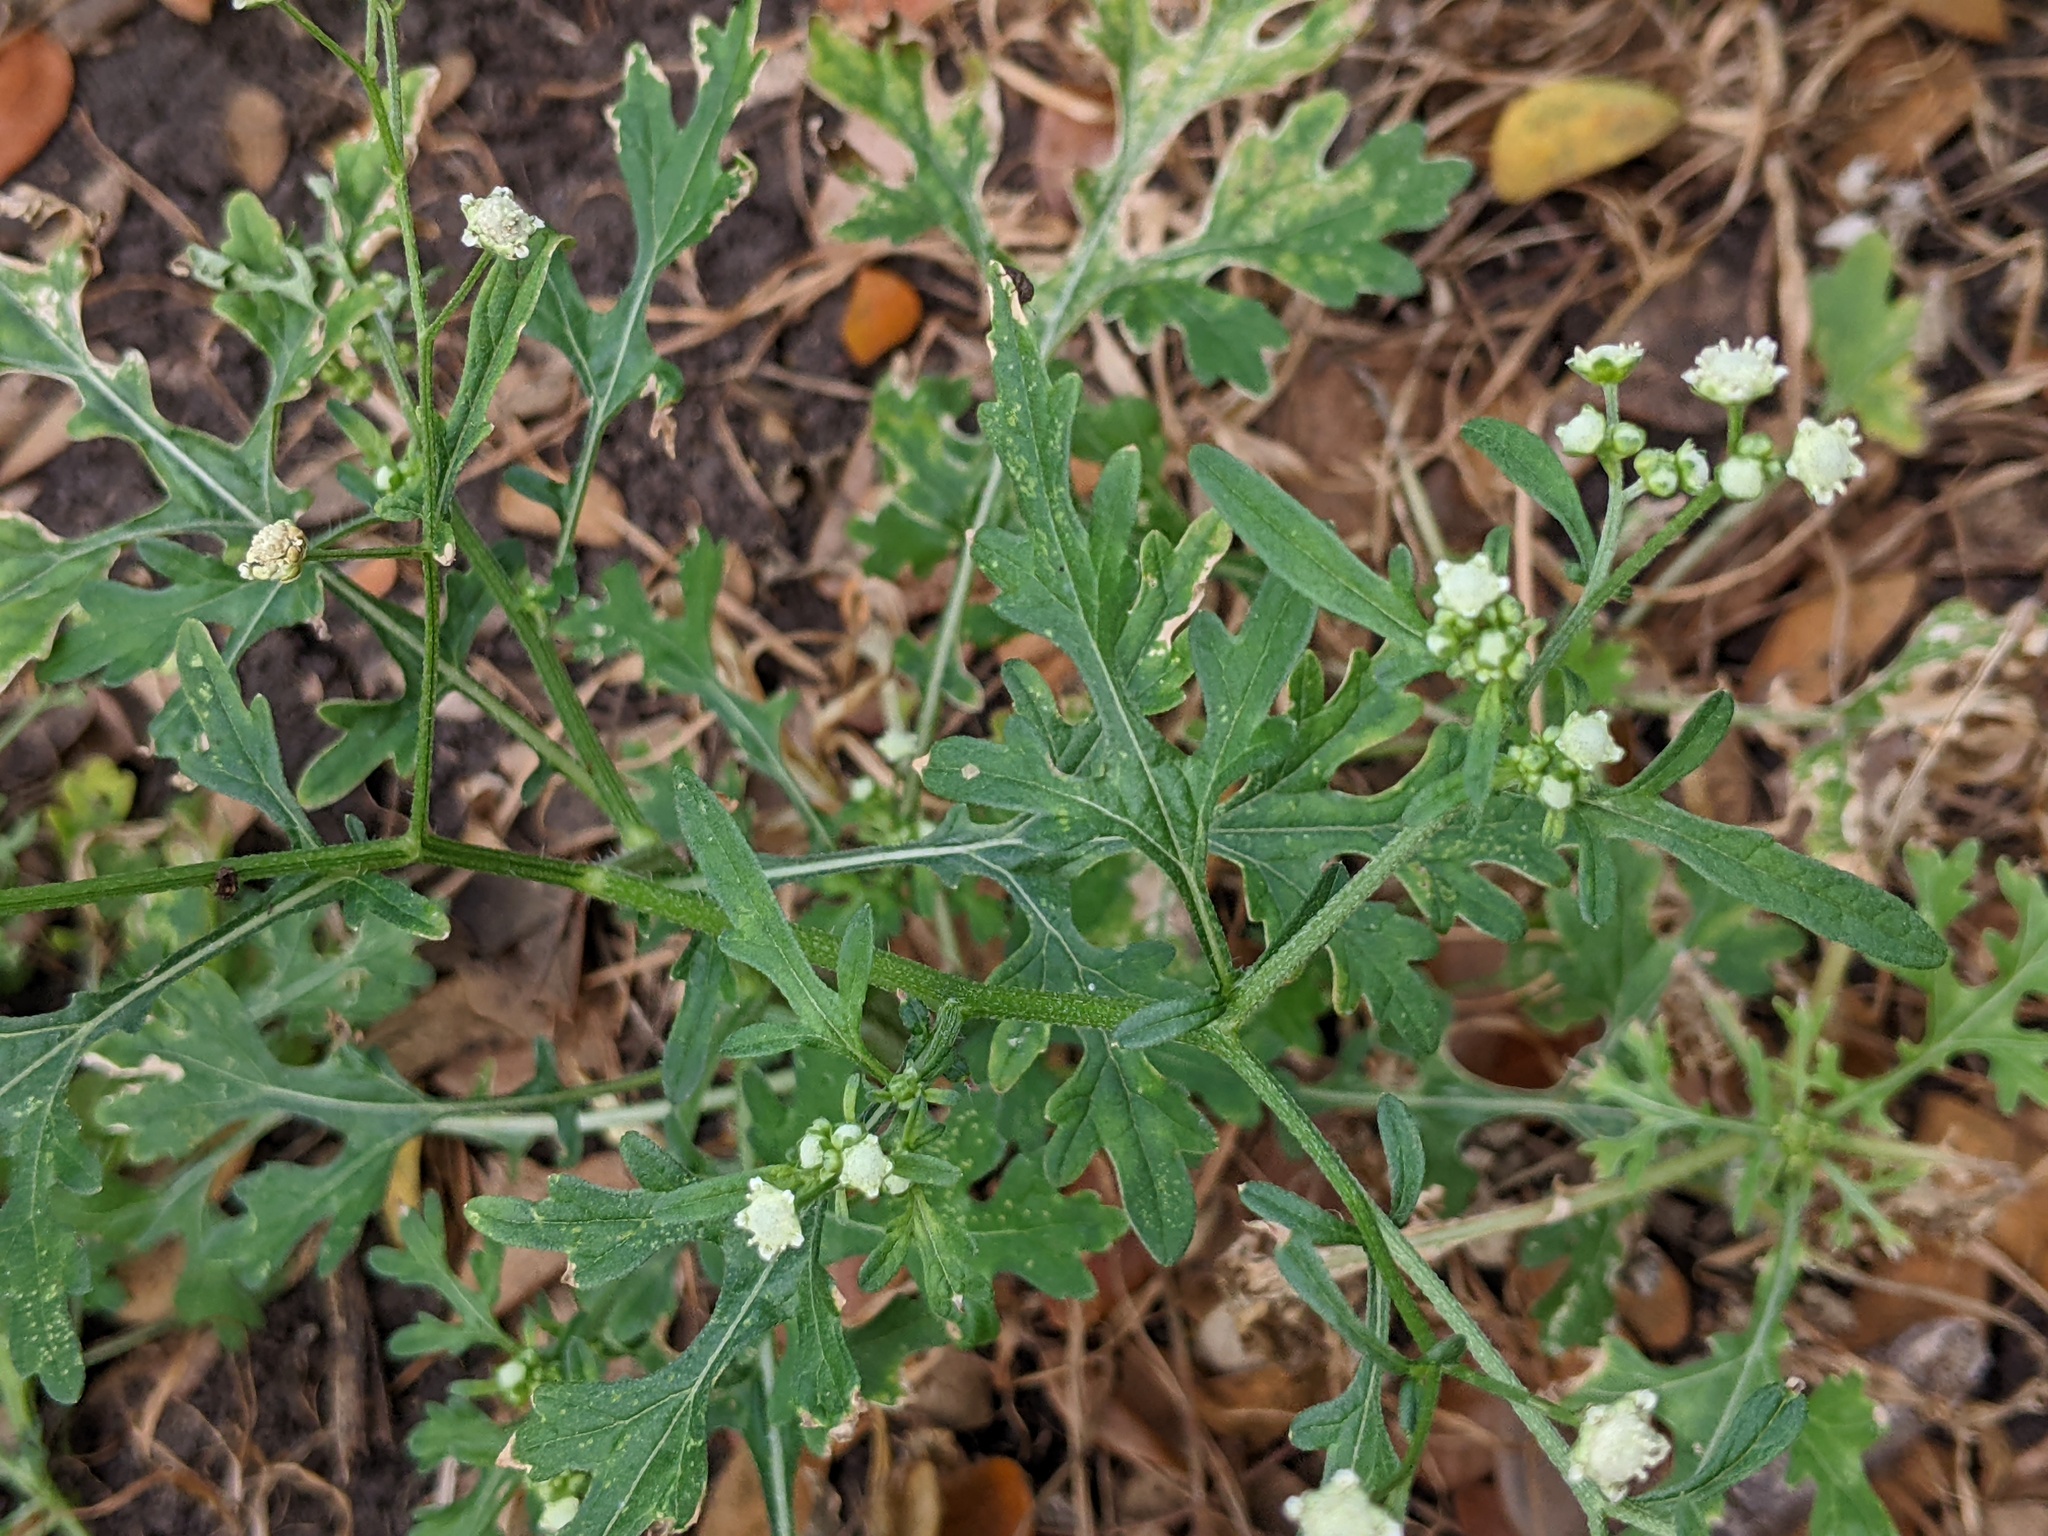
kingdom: Plantae
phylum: Tracheophyta
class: Magnoliopsida
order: Asterales
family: Asteraceae
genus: Parthenium
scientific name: Parthenium hysterophorus
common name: Santa maria feverfew
